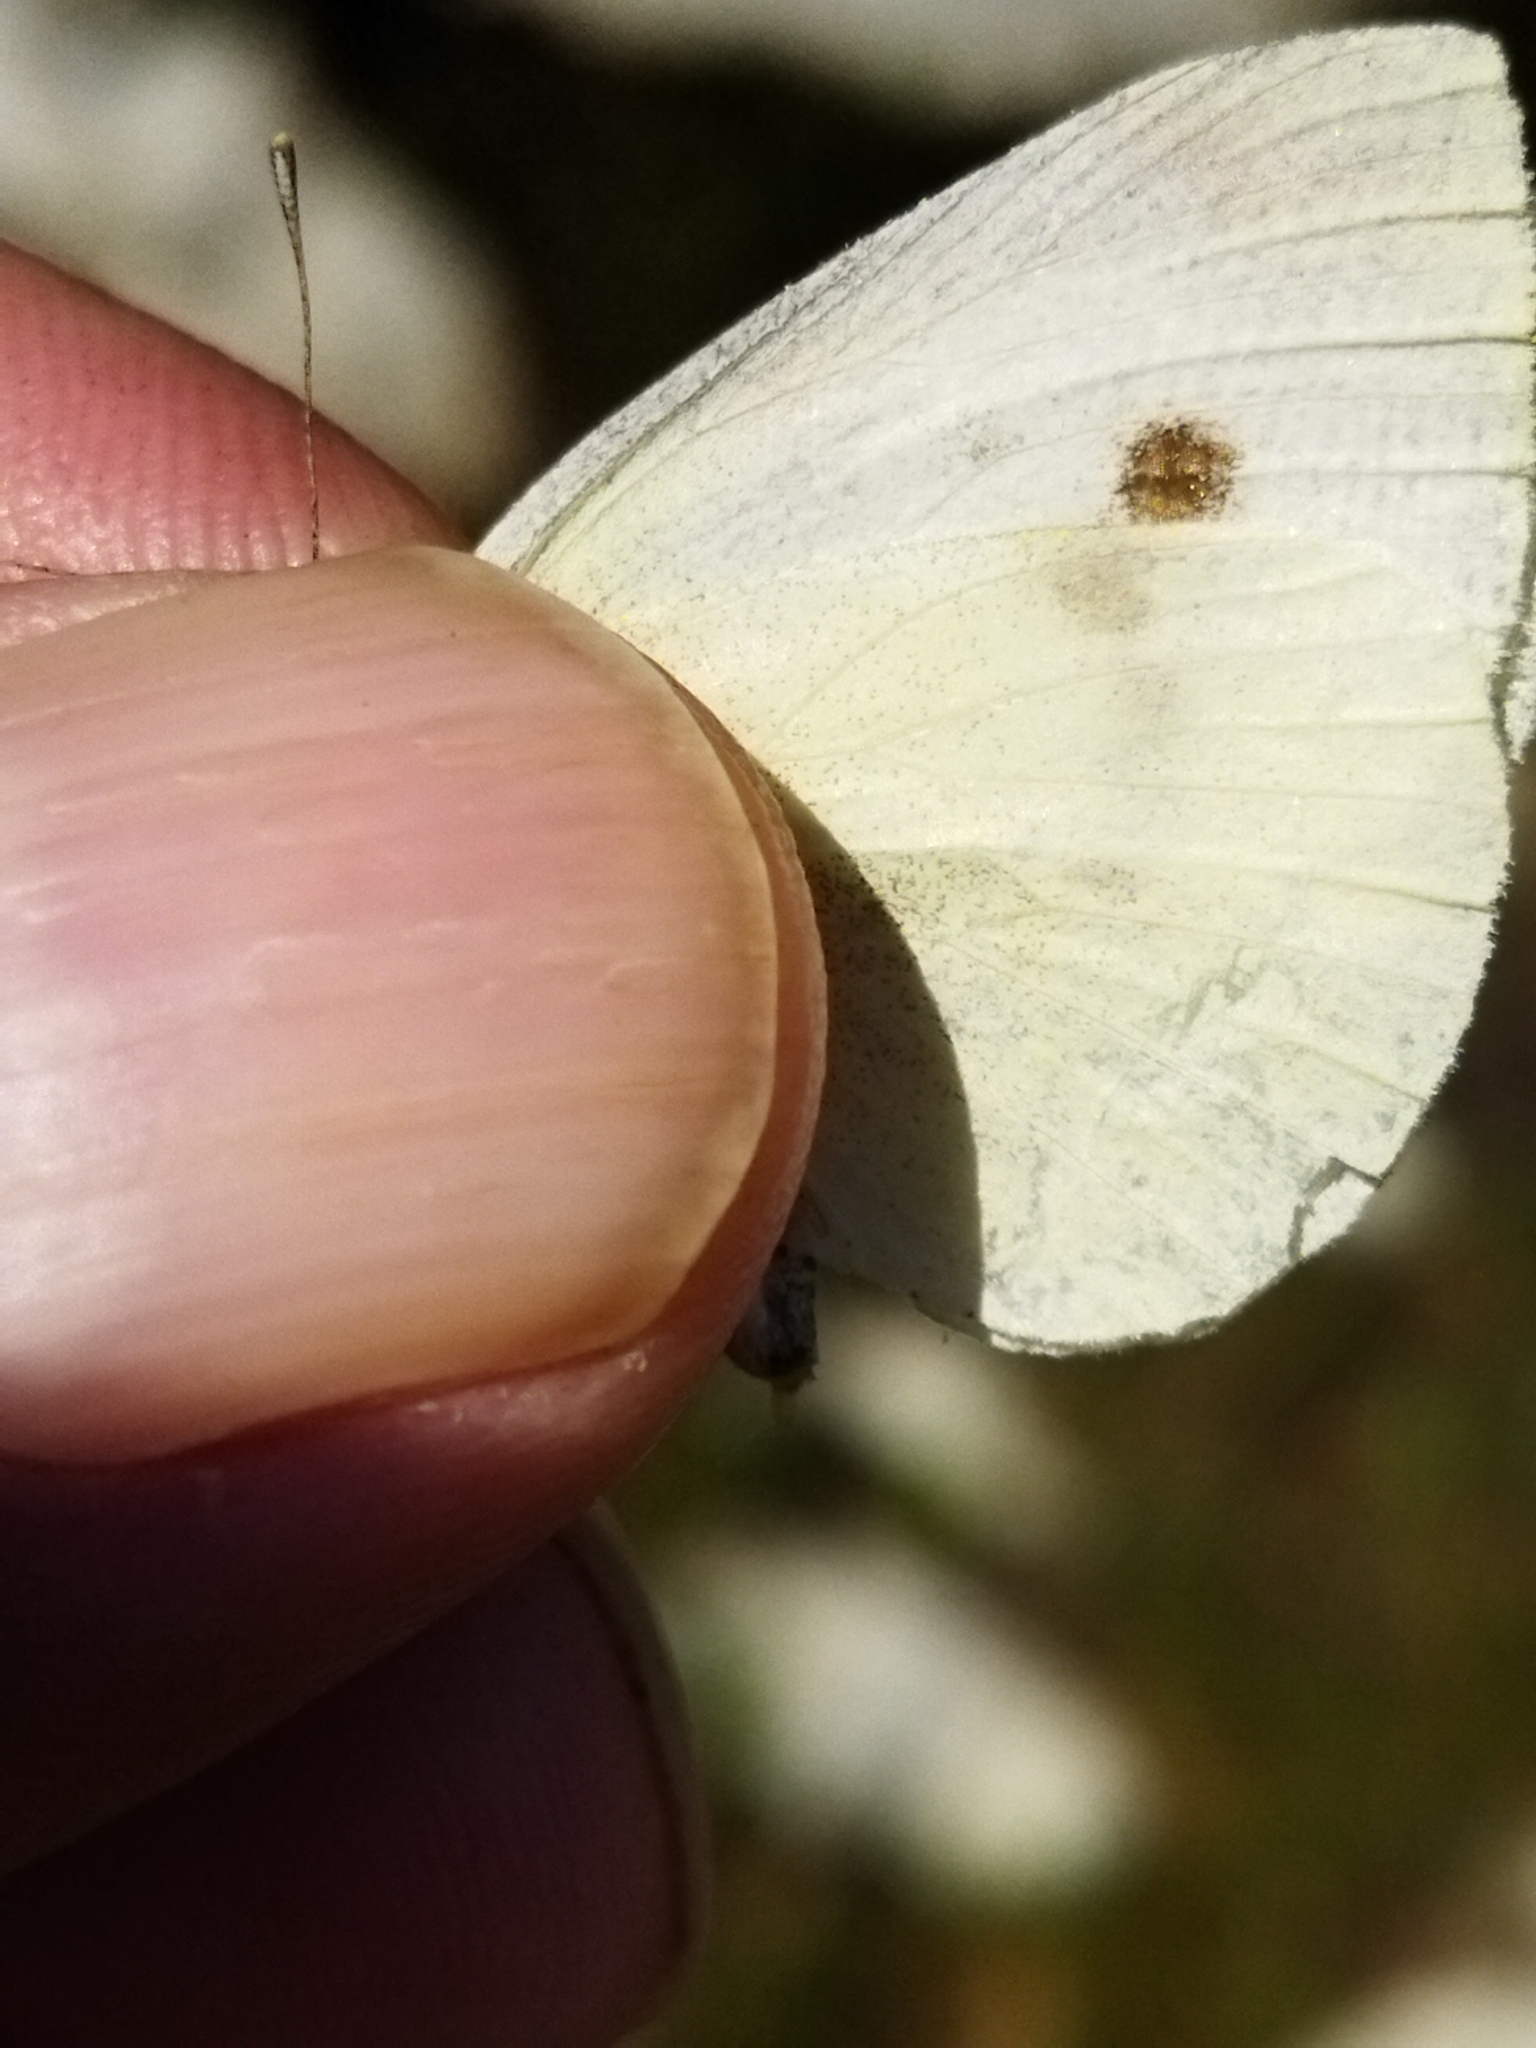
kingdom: Animalia
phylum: Arthropoda
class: Insecta
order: Lepidoptera
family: Pieridae
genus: Pieris
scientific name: Pieris rapae
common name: Small white
